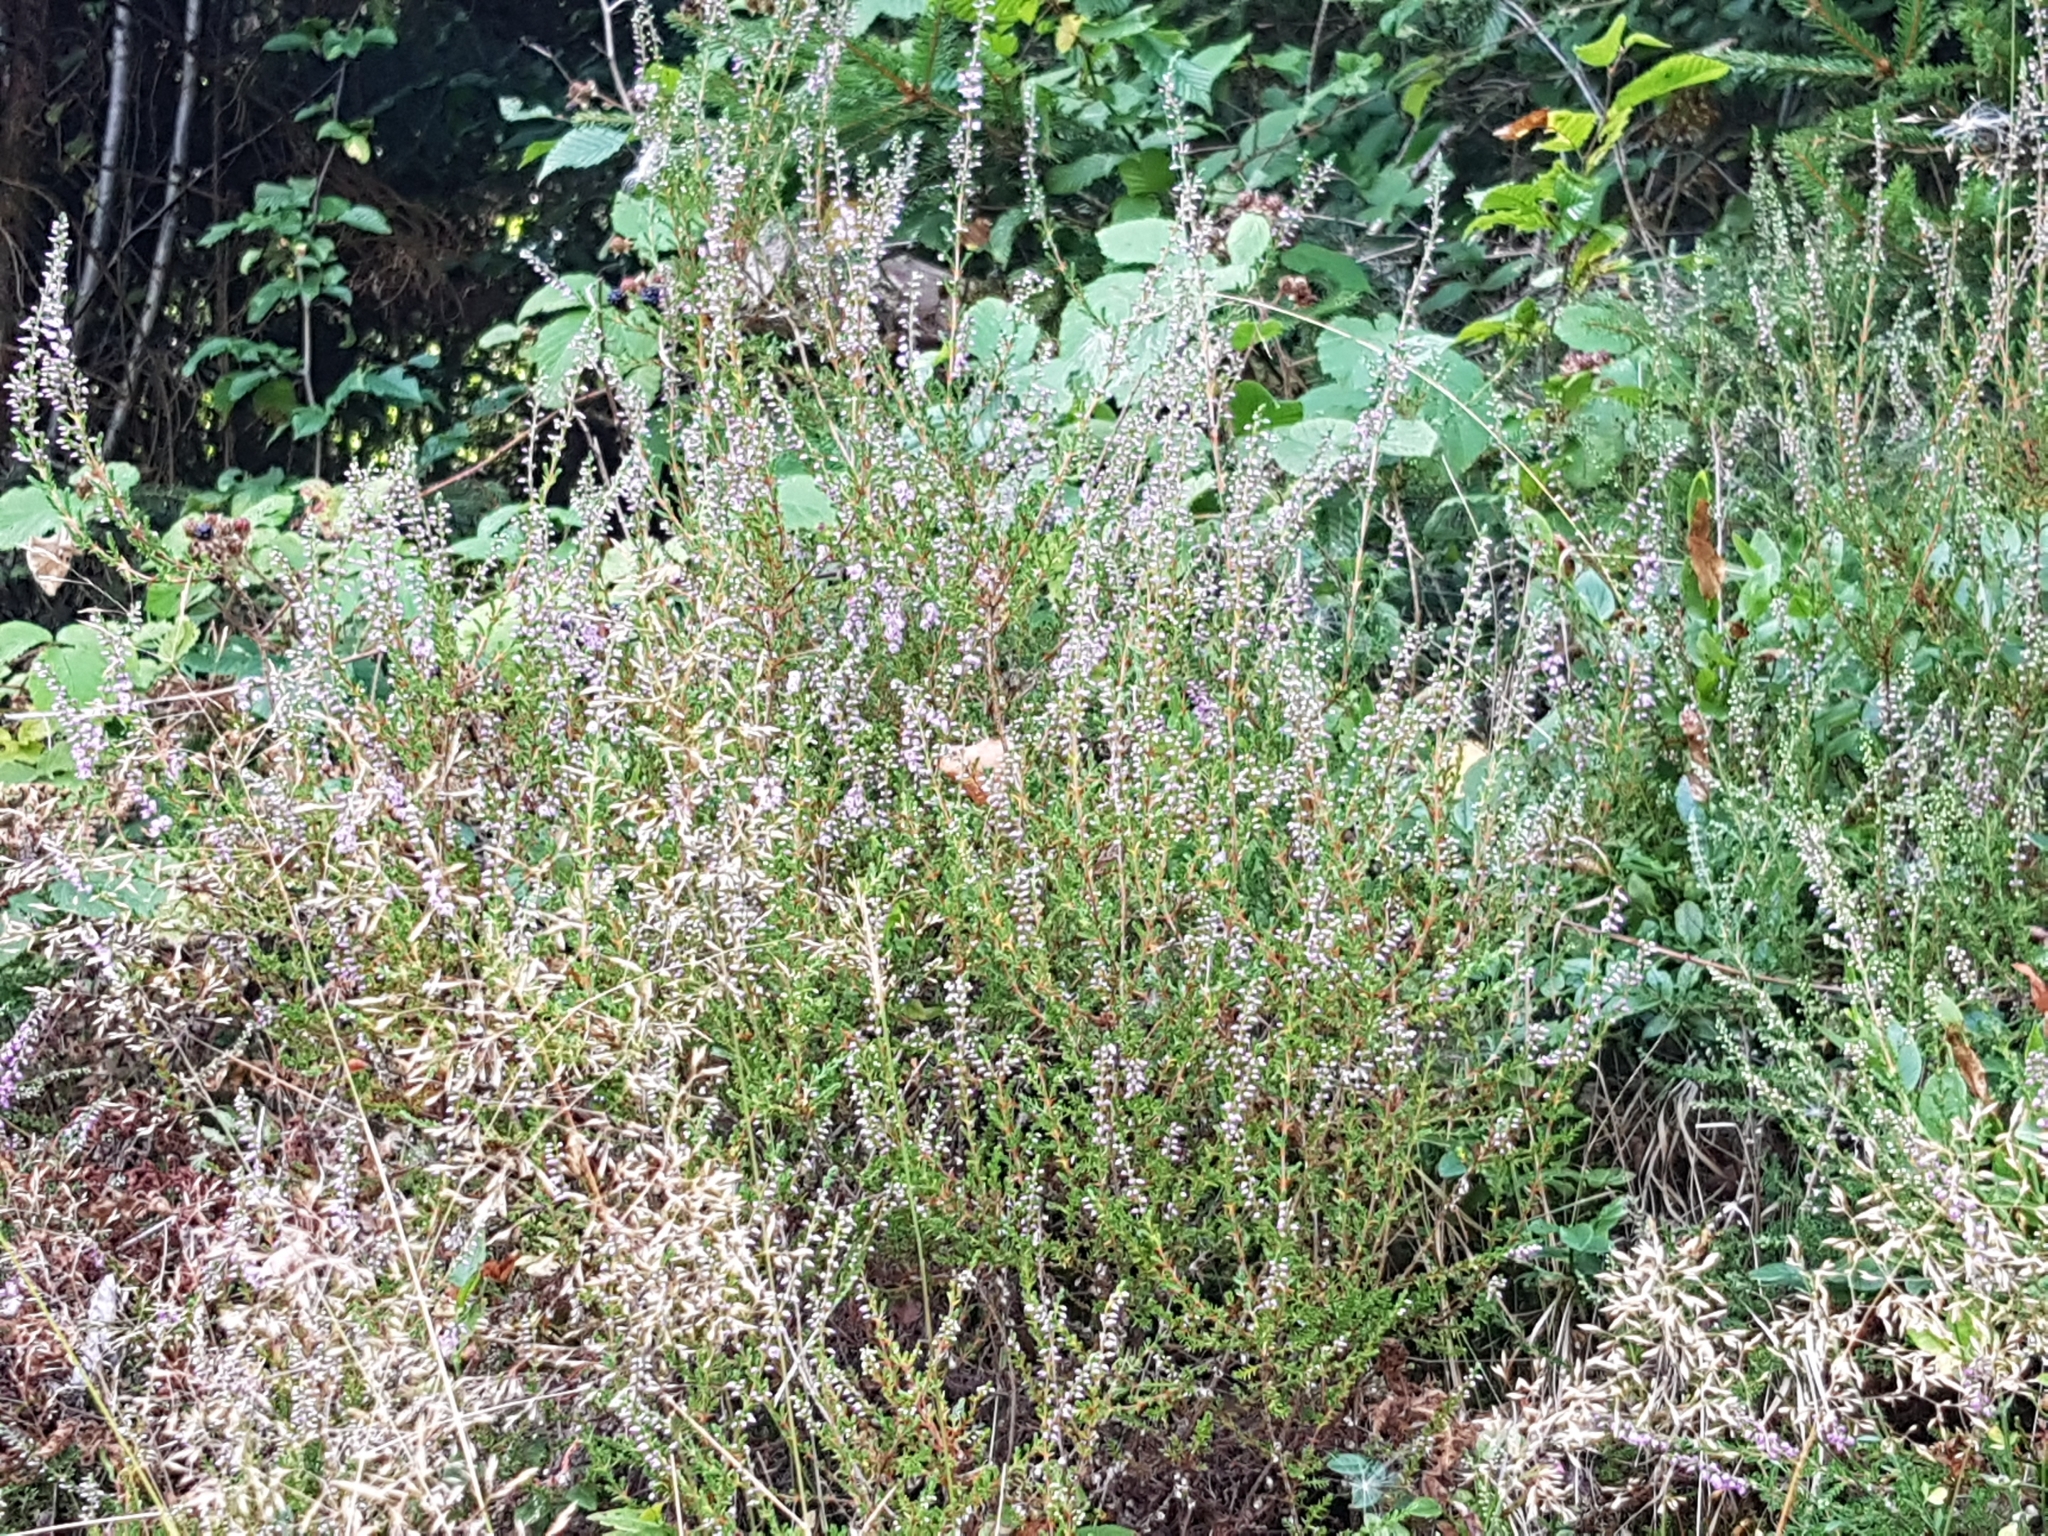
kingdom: Plantae
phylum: Tracheophyta
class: Magnoliopsida
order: Ericales
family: Ericaceae
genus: Calluna
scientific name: Calluna vulgaris
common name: Heather
